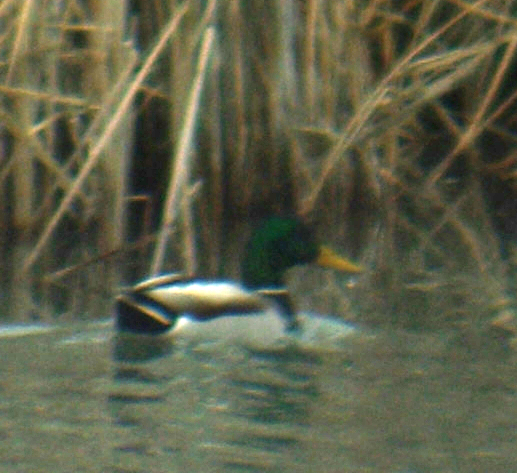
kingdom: Animalia
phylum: Chordata
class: Aves
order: Anseriformes
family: Anatidae
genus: Anas
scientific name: Anas platyrhynchos
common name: Mallard
